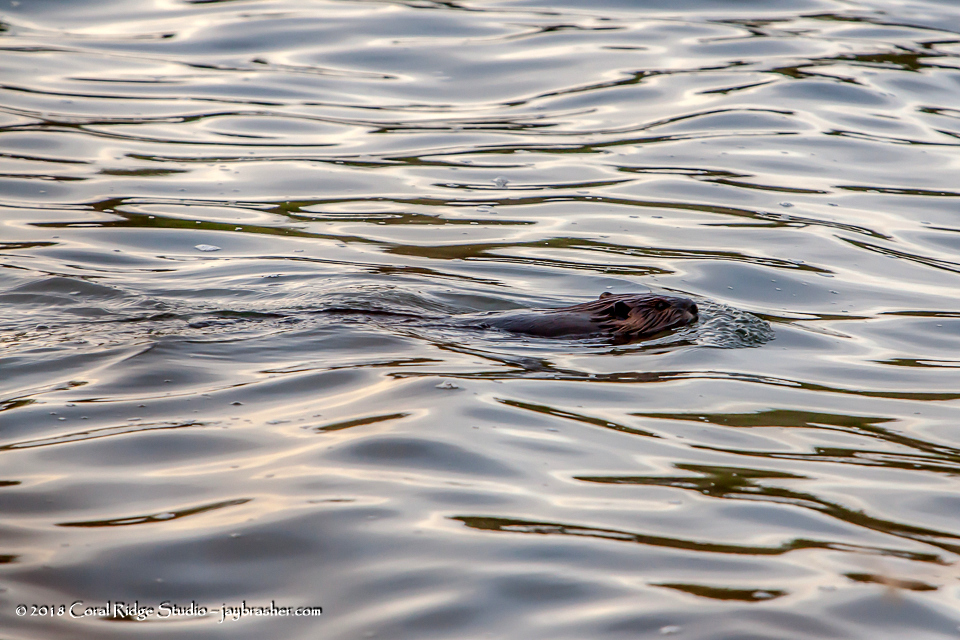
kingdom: Animalia
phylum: Chordata
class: Mammalia
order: Rodentia
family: Castoridae
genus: Castor
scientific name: Castor canadensis
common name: American beaver
